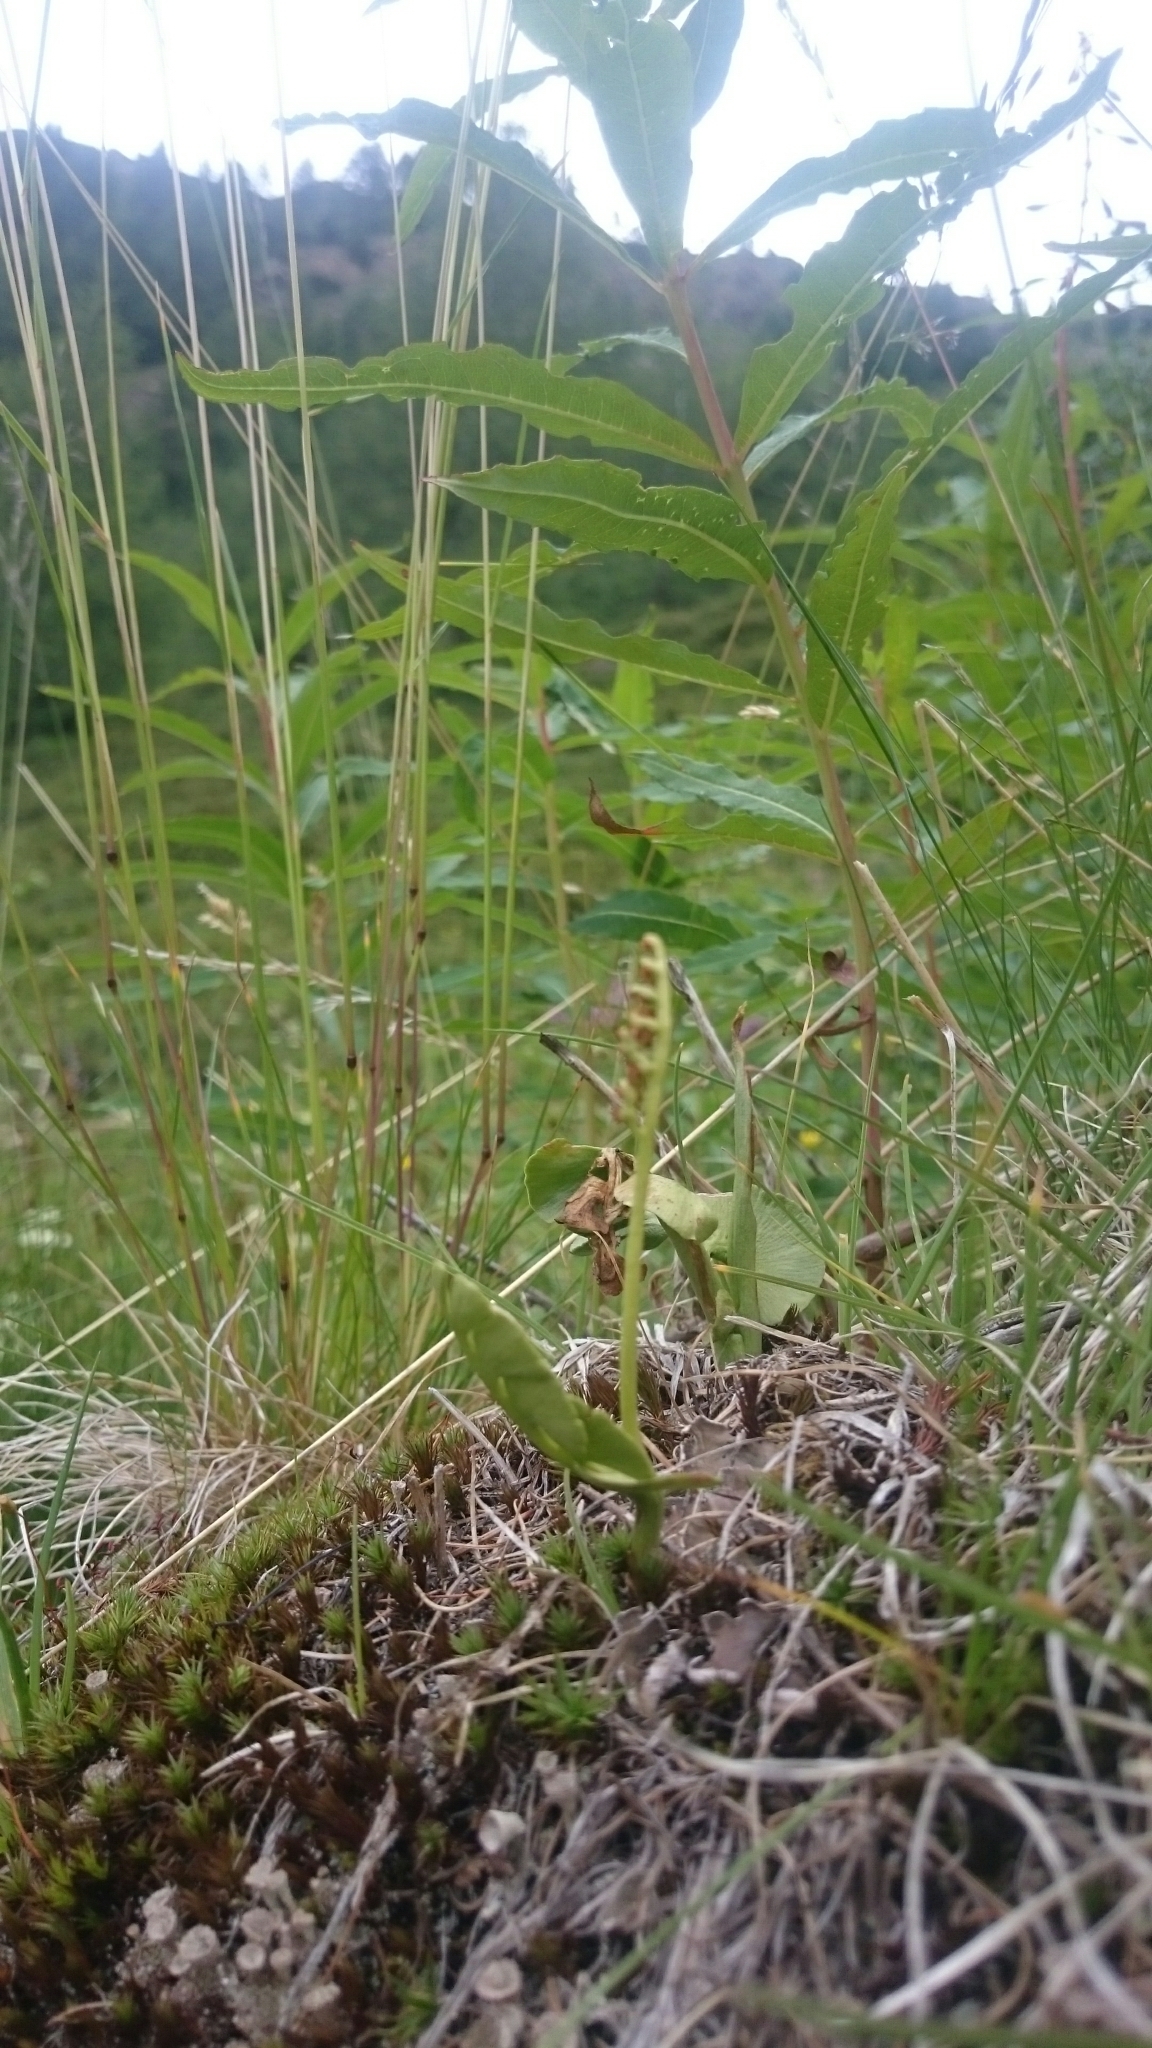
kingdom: Plantae
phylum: Tracheophyta
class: Polypodiopsida
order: Ophioglossales
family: Ophioglossaceae
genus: Botrychium
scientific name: Botrychium lunaria
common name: Moonwort
